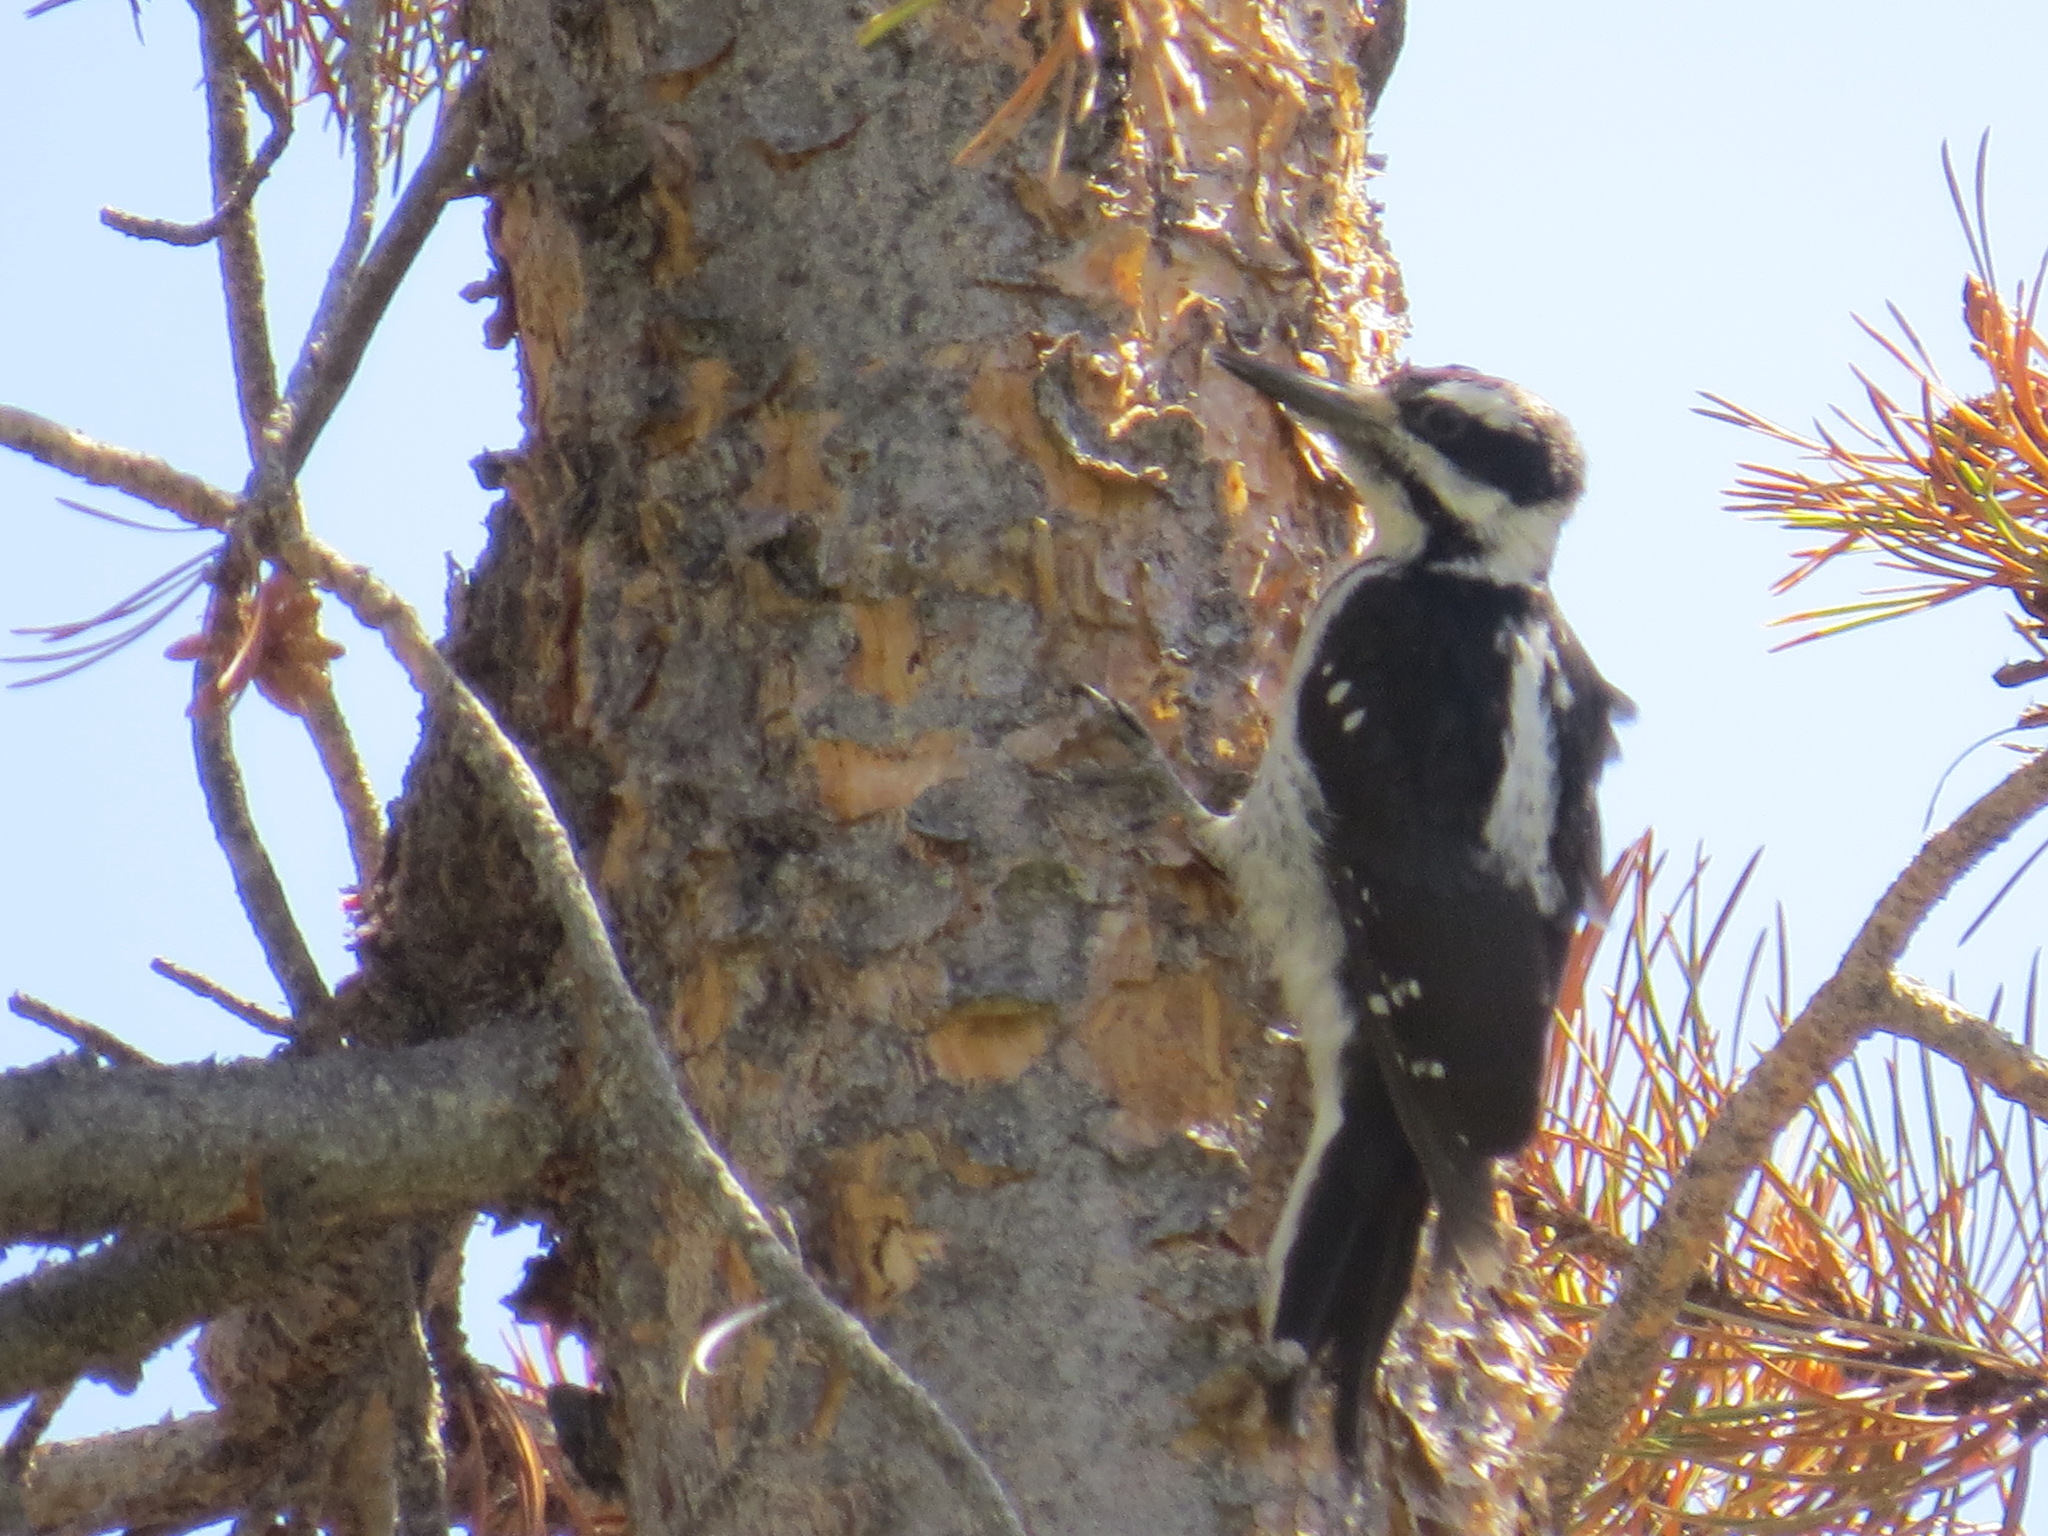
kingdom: Animalia
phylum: Chordata
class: Aves
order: Piciformes
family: Picidae
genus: Leuconotopicus
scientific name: Leuconotopicus villosus
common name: Hairy woodpecker
